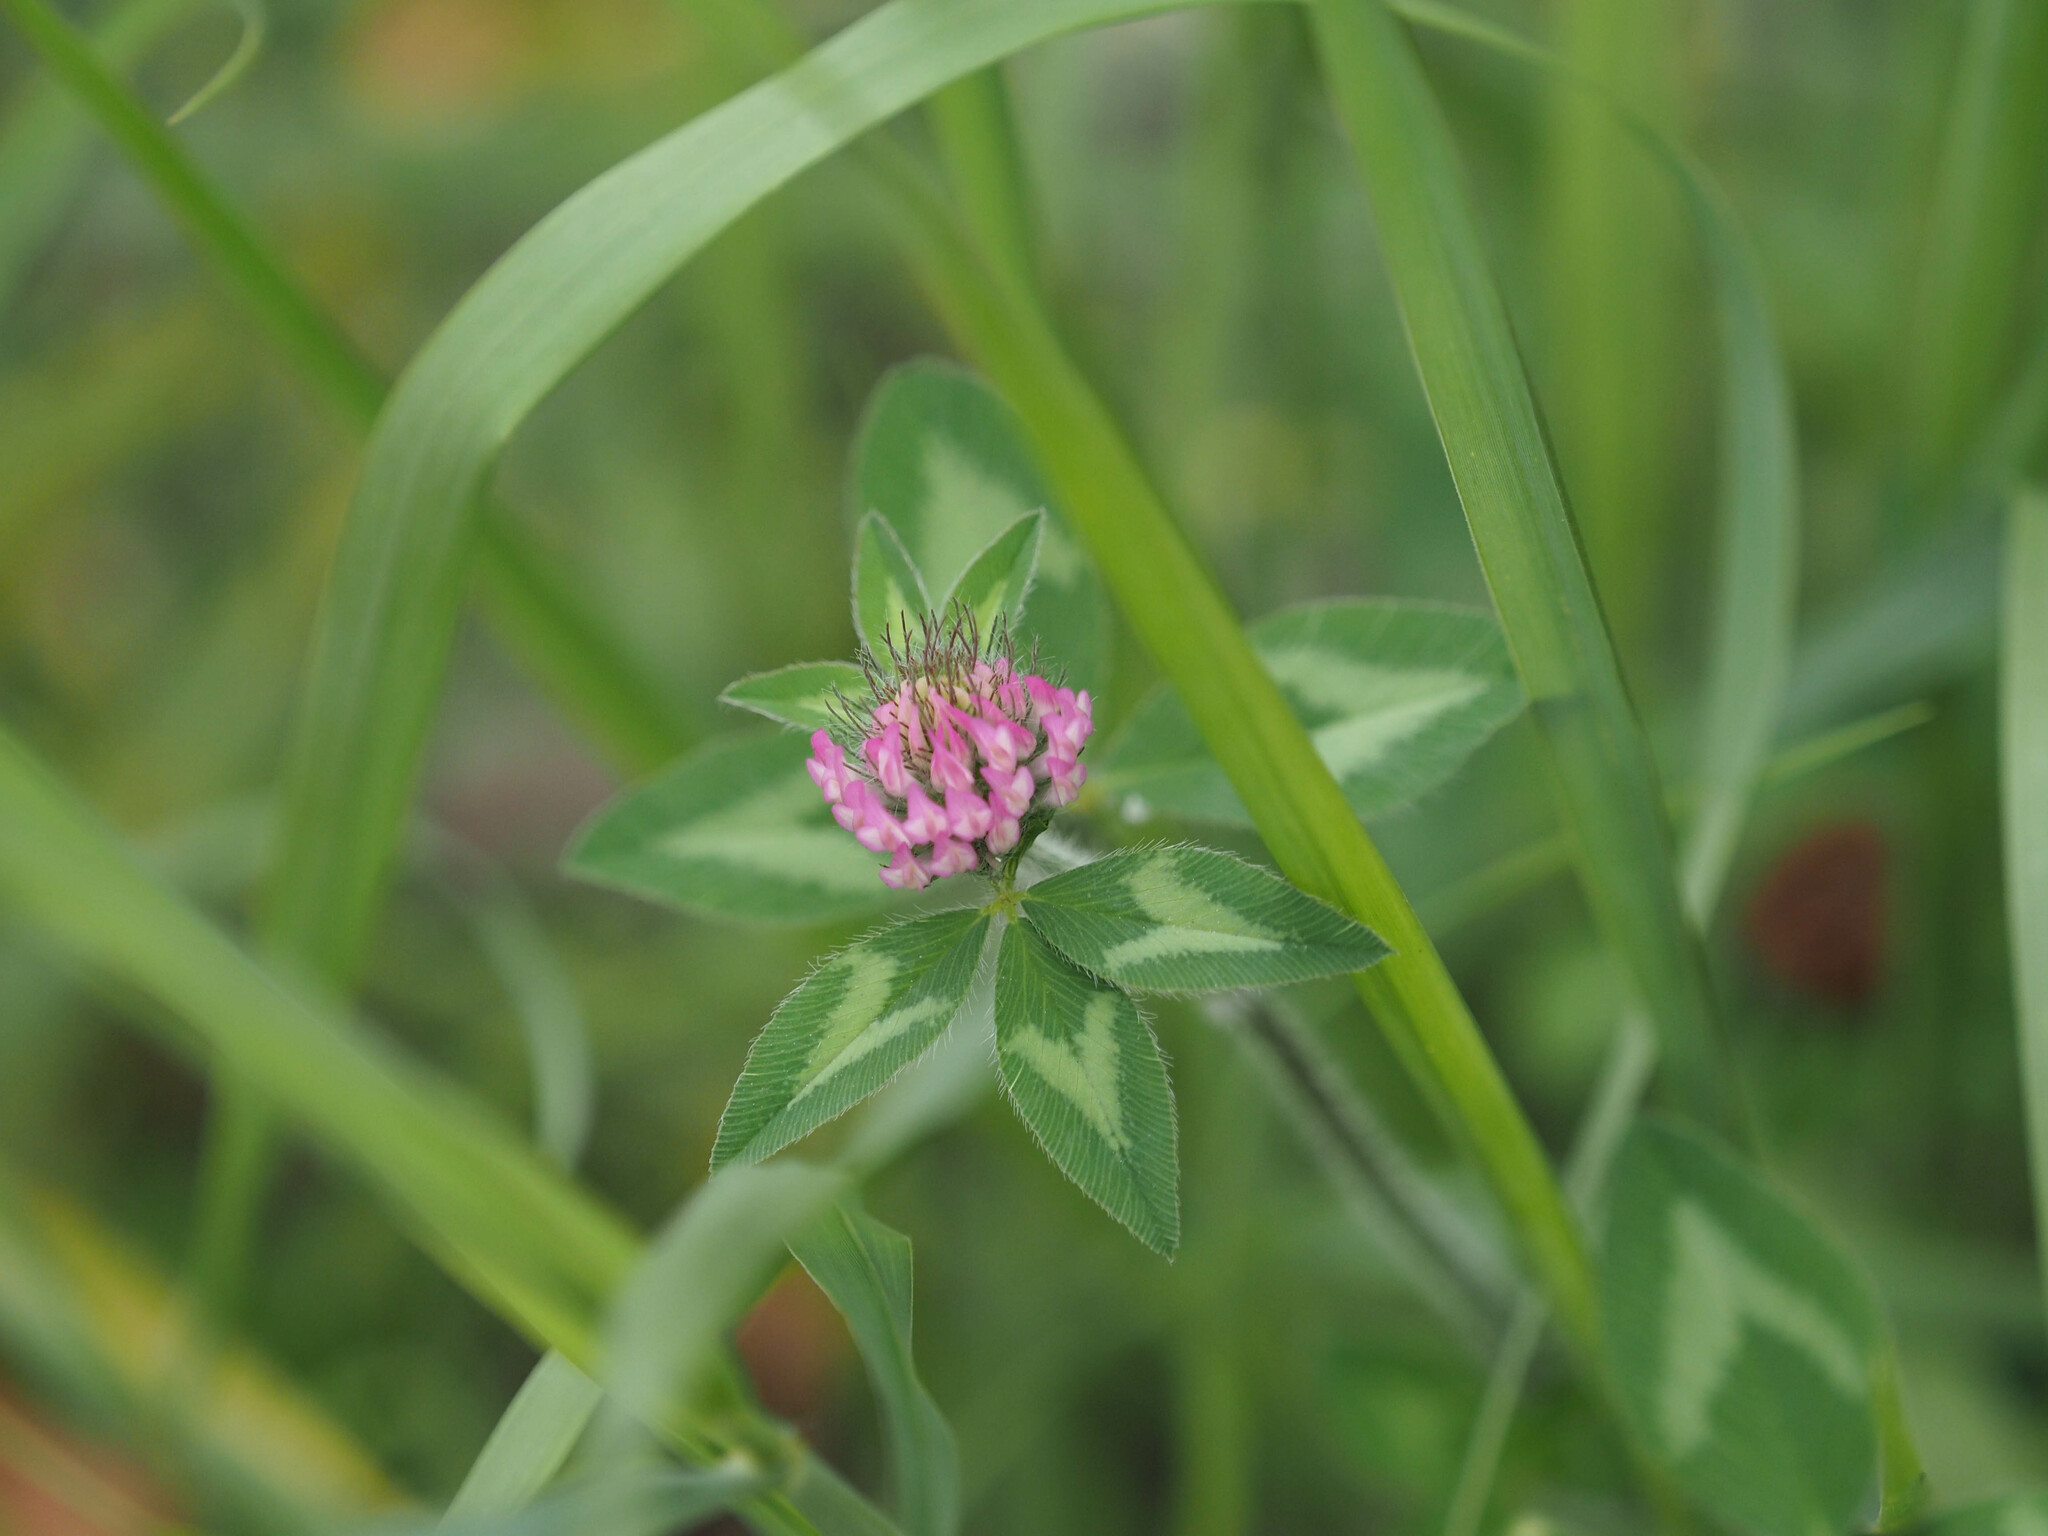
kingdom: Plantae
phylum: Tracheophyta
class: Magnoliopsida
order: Fabales
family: Fabaceae
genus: Trifolium
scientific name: Trifolium pratense
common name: Red clover
